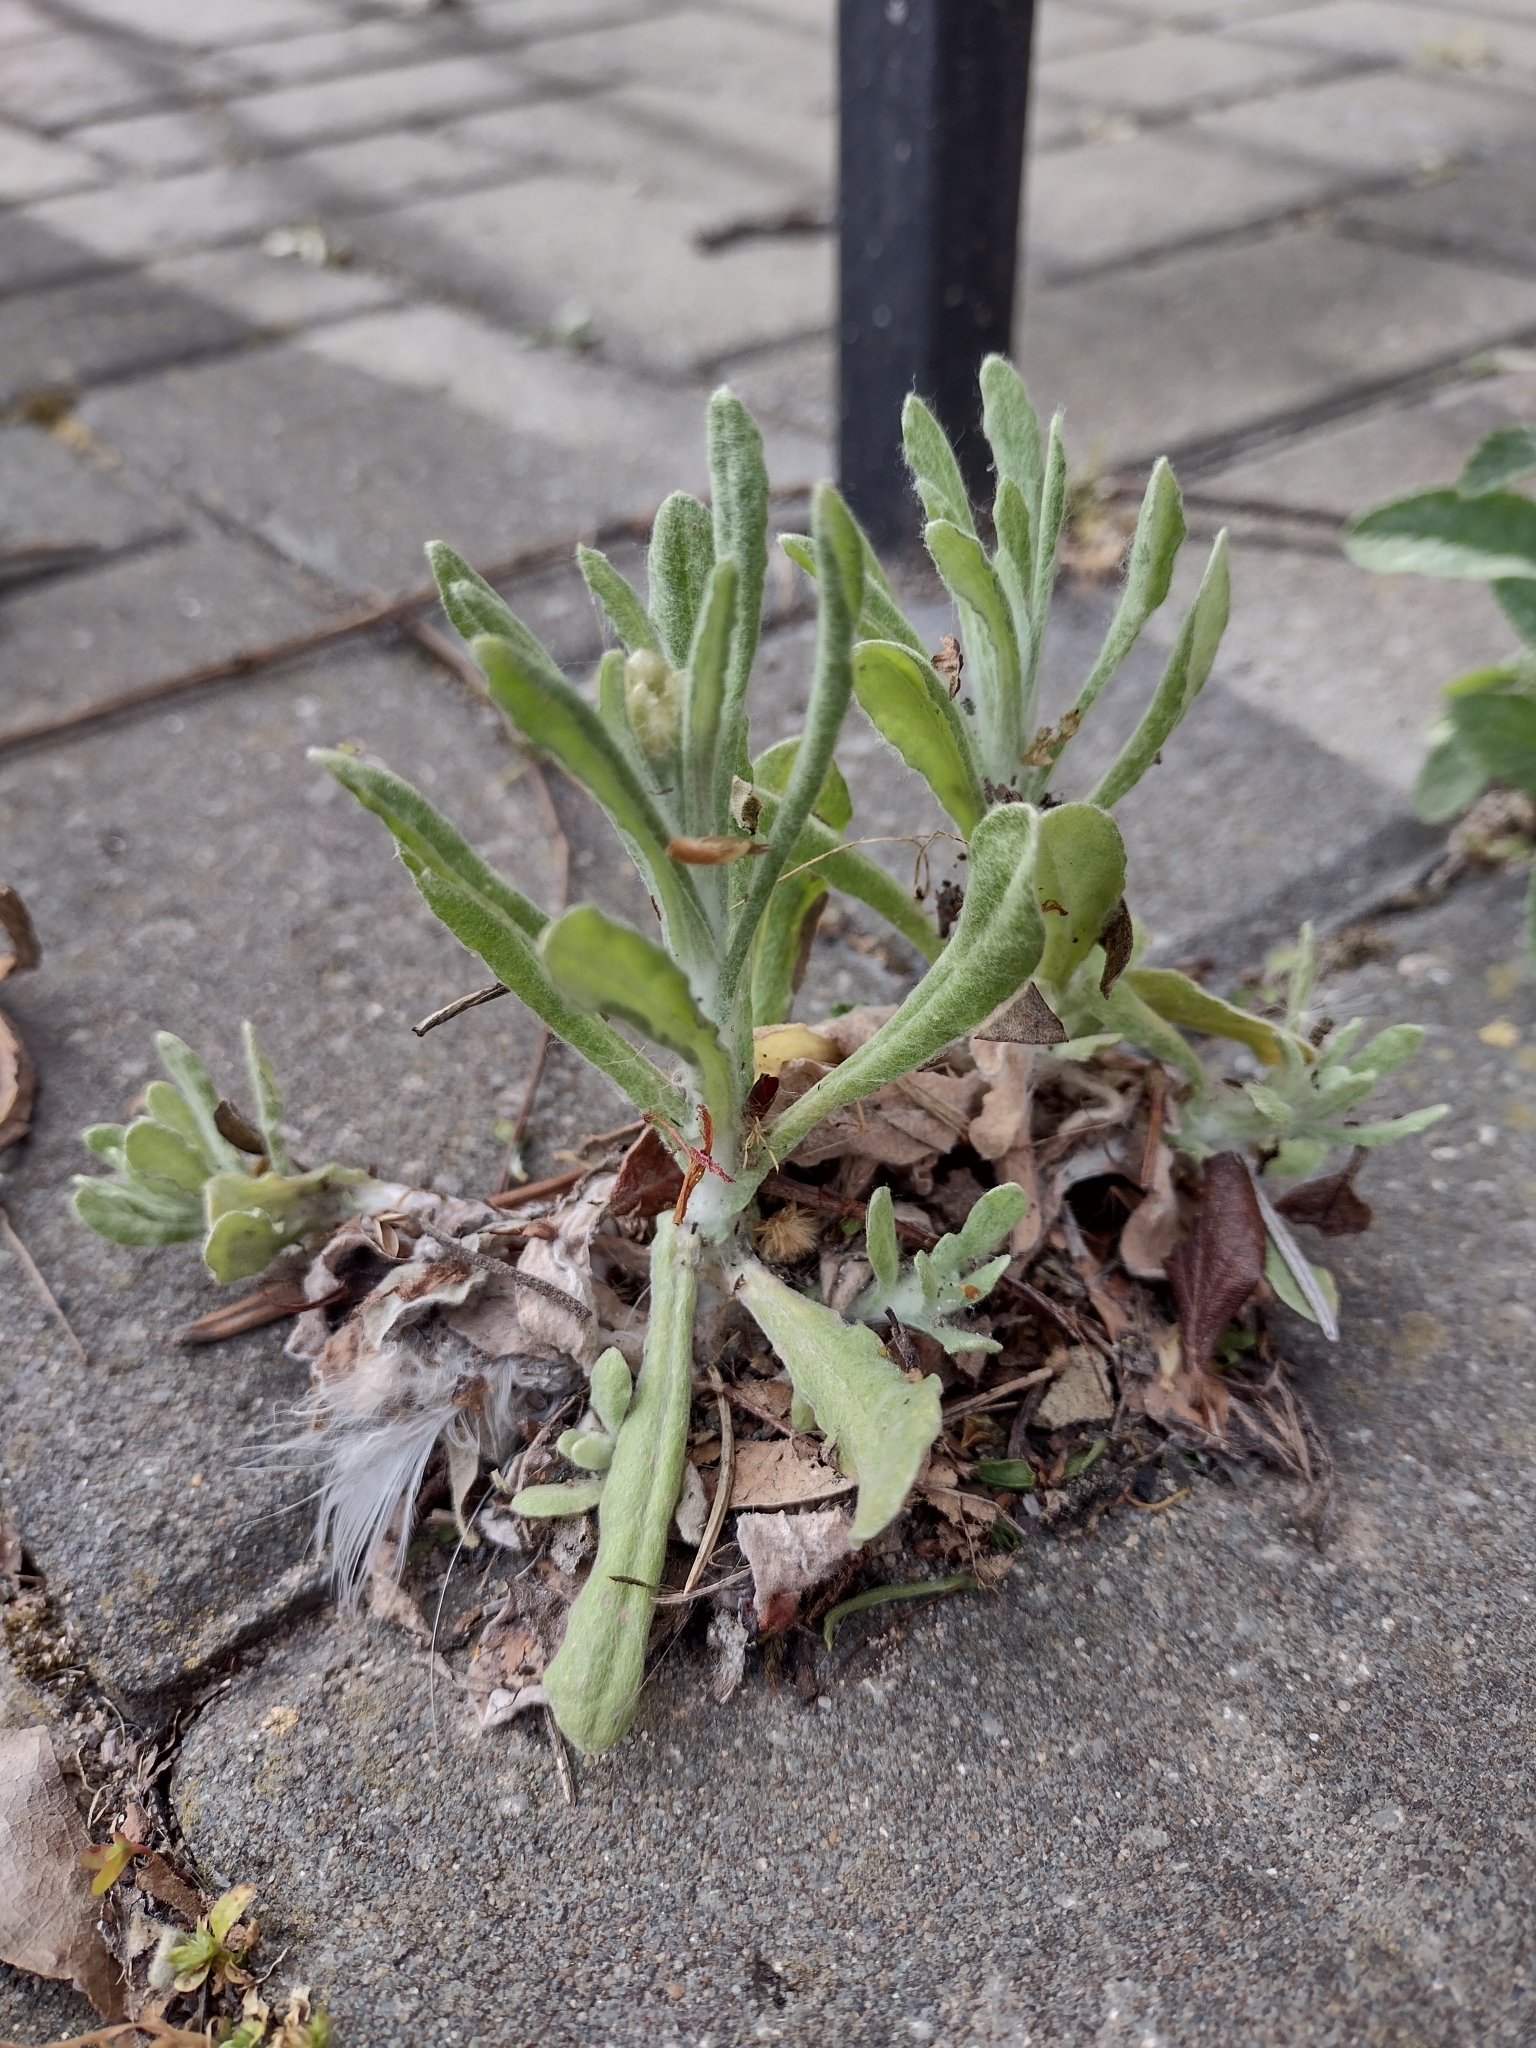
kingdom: Plantae
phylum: Tracheophyta
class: Magnoliopsida
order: Asterales
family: Asteraceae
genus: Helichrysum
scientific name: Helichrysum luteoalbum
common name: Daisy
